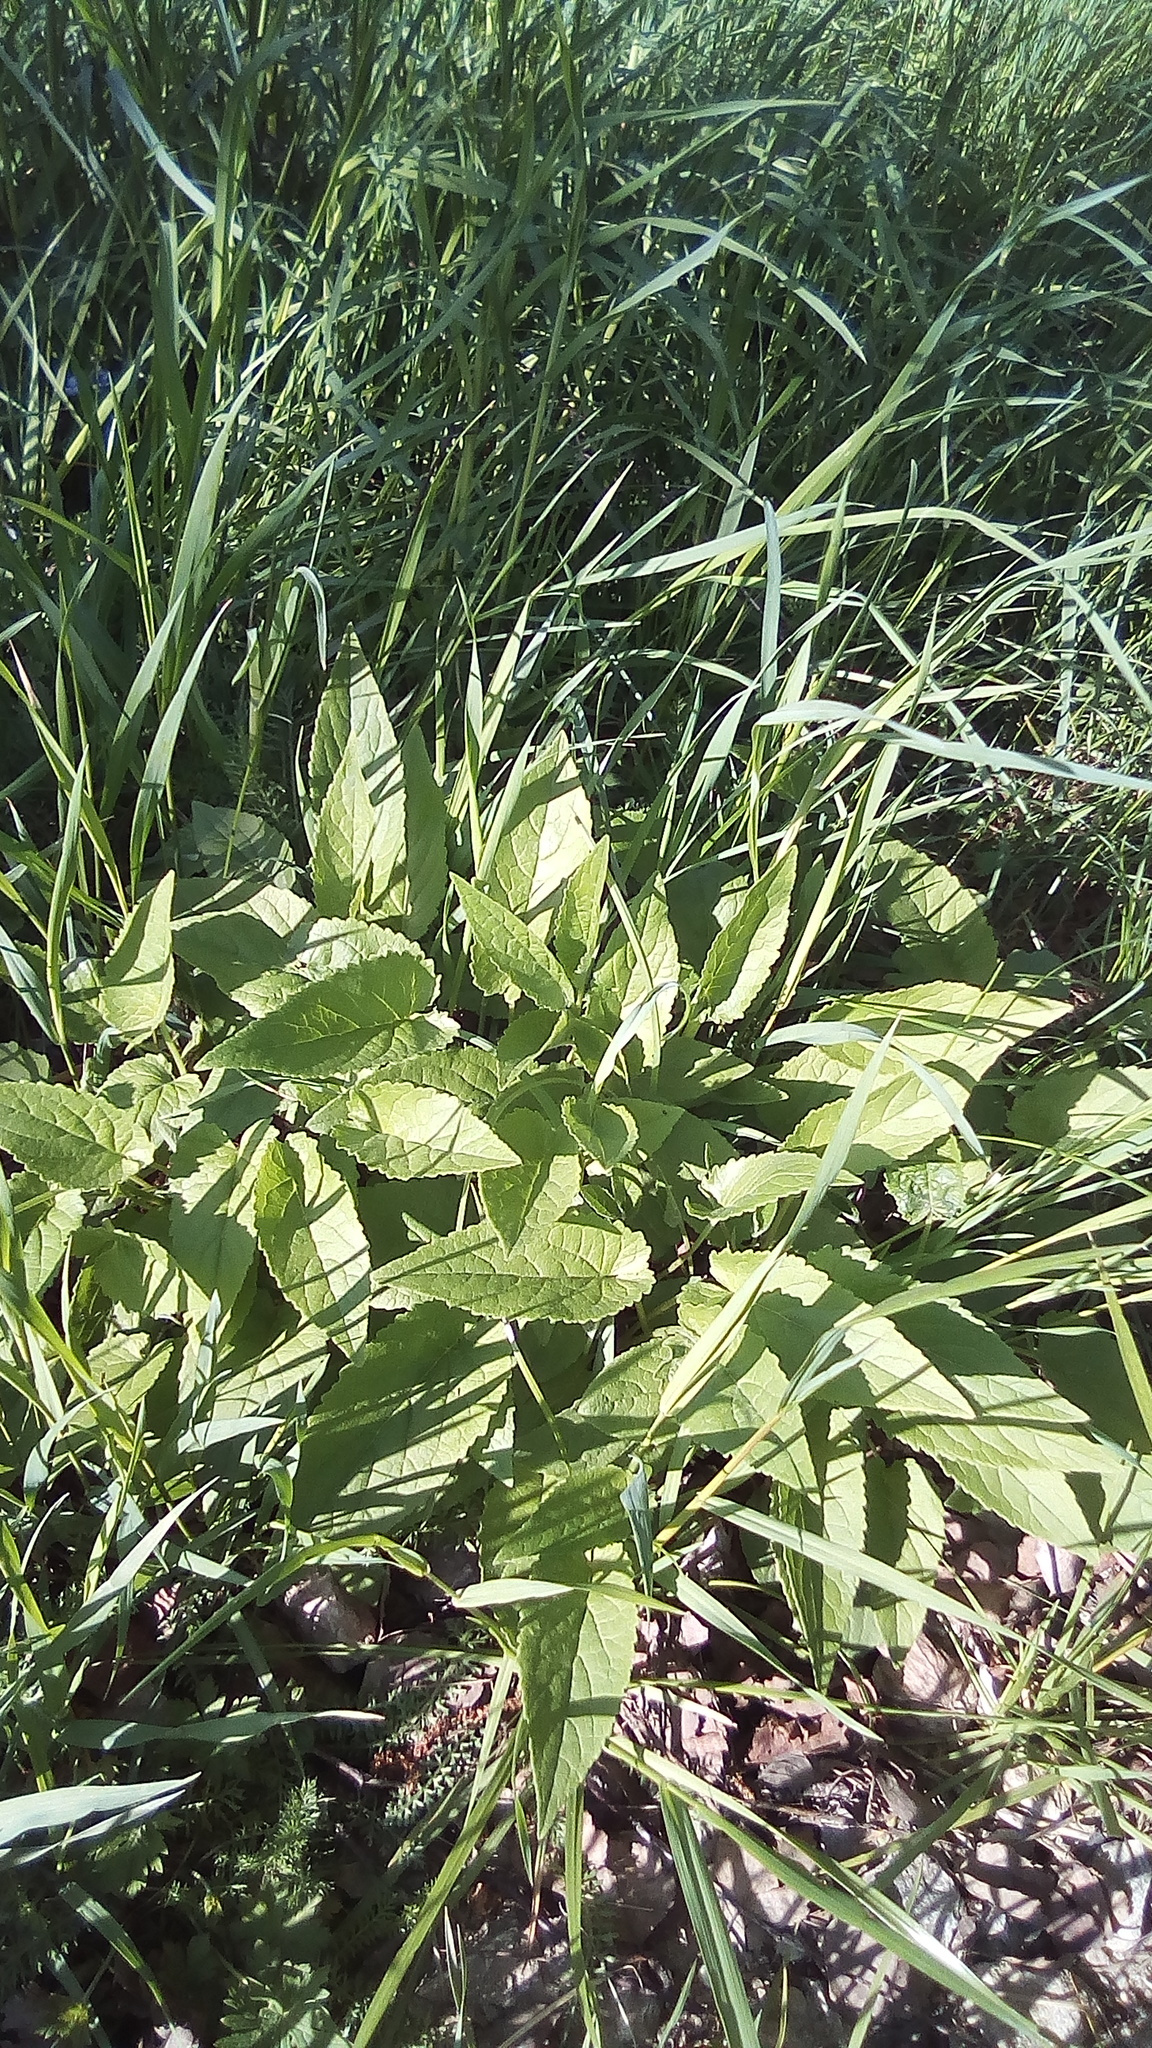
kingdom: Plantae
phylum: Tracheophyta
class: Magnoliopsida
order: Asterales
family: Campanulaceae
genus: Campanula
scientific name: Campanula rapunculoides
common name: Creeping bellflower
